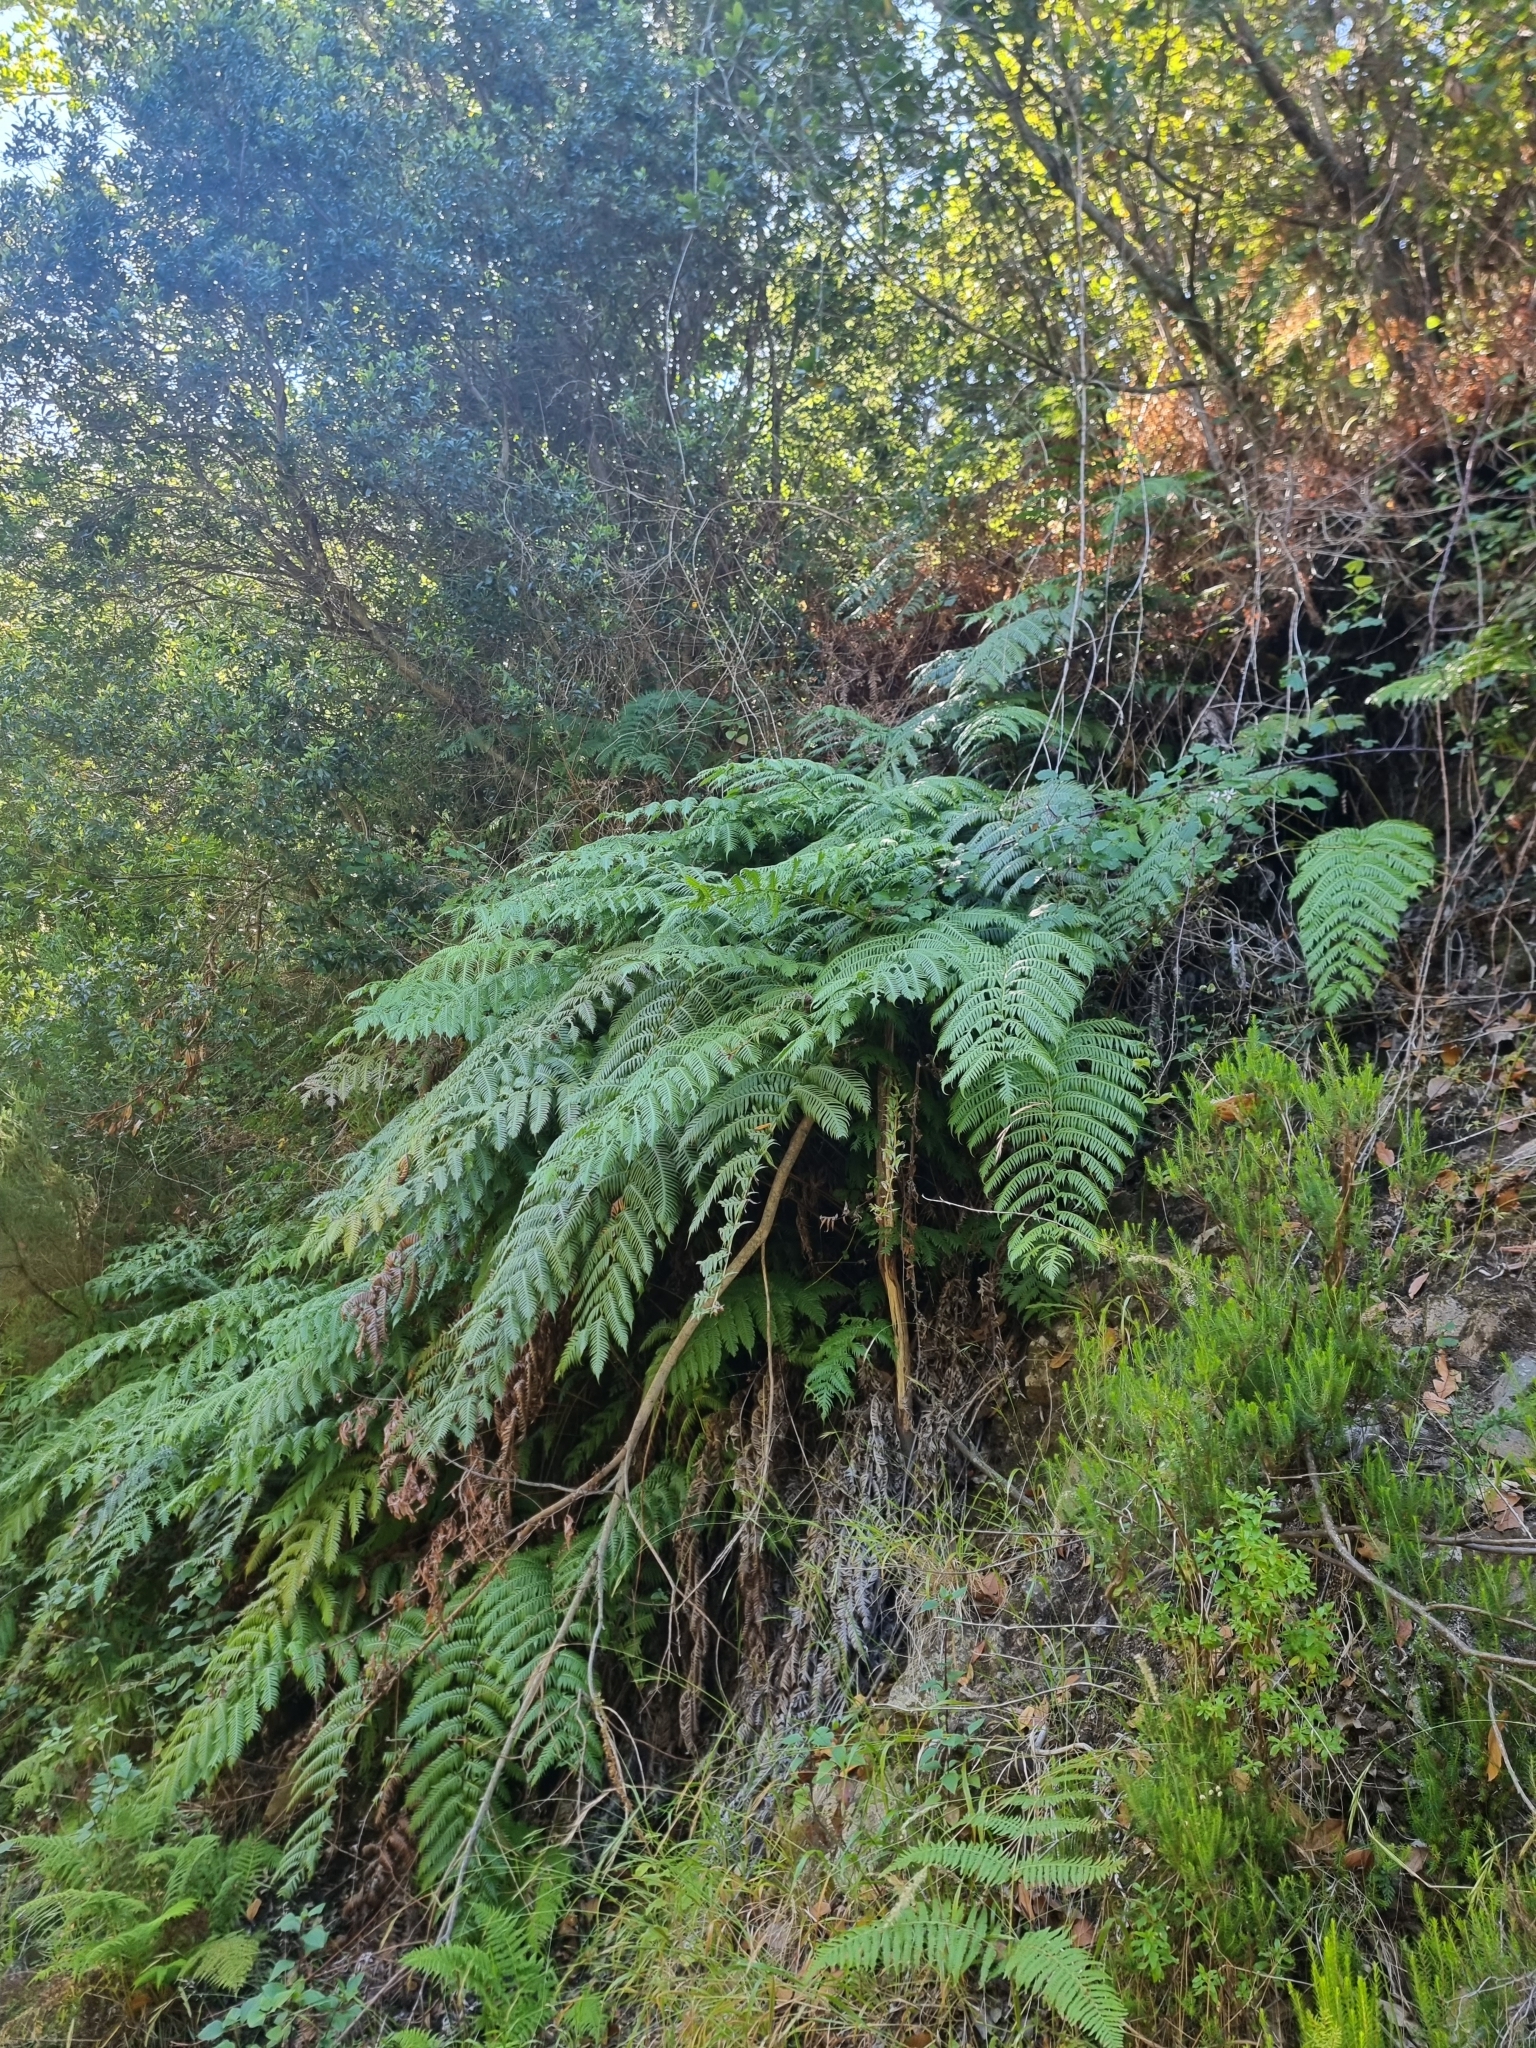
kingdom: Plantae
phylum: Tracheophyta
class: Polypodiopsida
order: Polypodiales
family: Blechnaceae
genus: Woodwardia
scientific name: Woodwardia radicans
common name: Rooting chainfern
